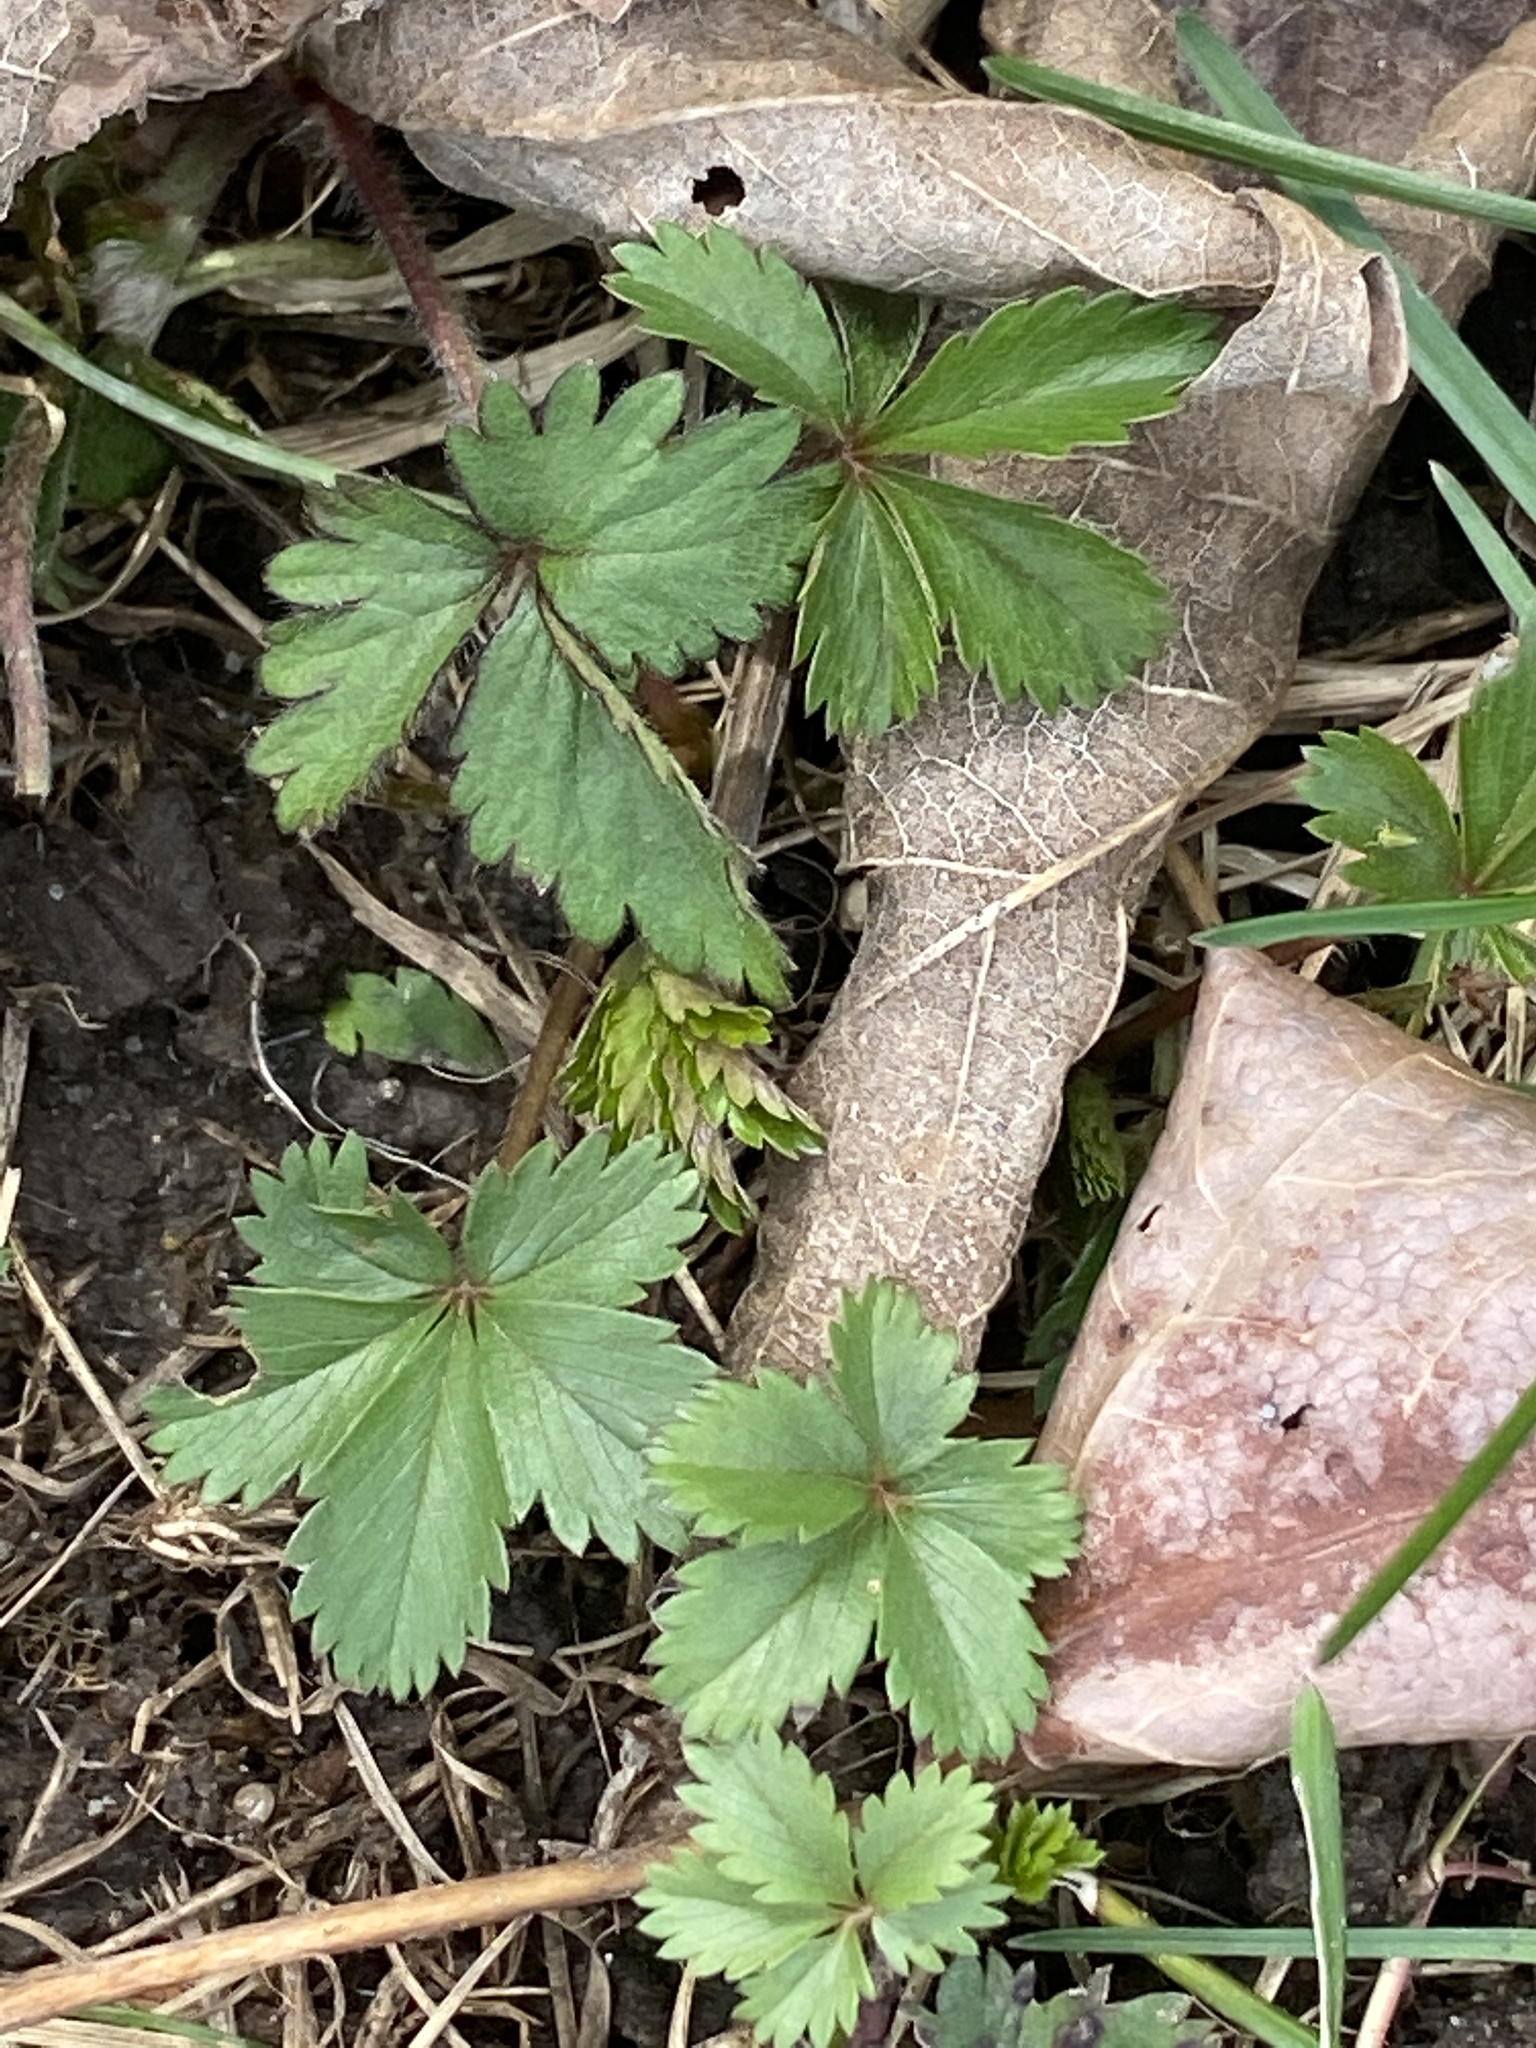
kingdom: Plantae
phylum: Tracheophyta
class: Magnoliopsida
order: Rosales
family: Rosaceae
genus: Potentilla
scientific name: Potentilla canadensis
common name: Canada cinquefoil
